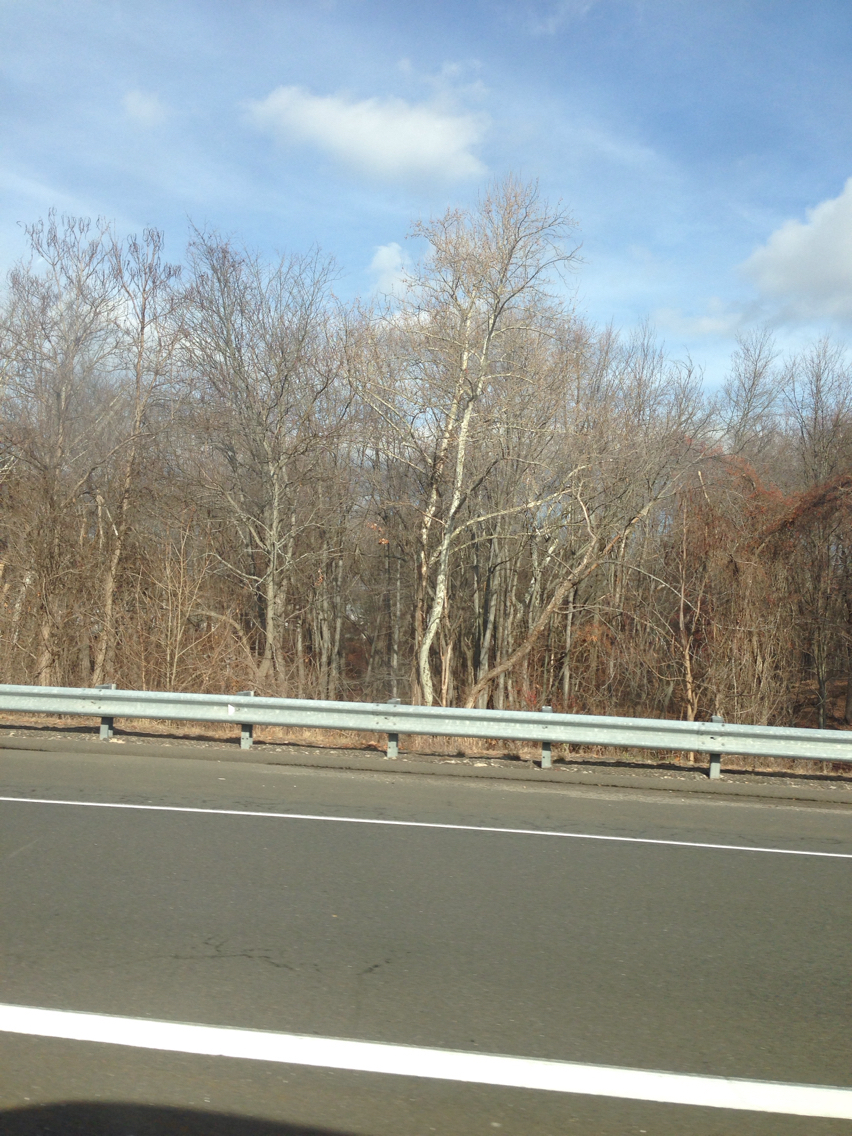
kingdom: Plantae
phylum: Tracheophyta
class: Magnoliopsida
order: Proteales
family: Platanaceae
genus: Platanus
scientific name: Platanus occidentalis
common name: American sycamore
